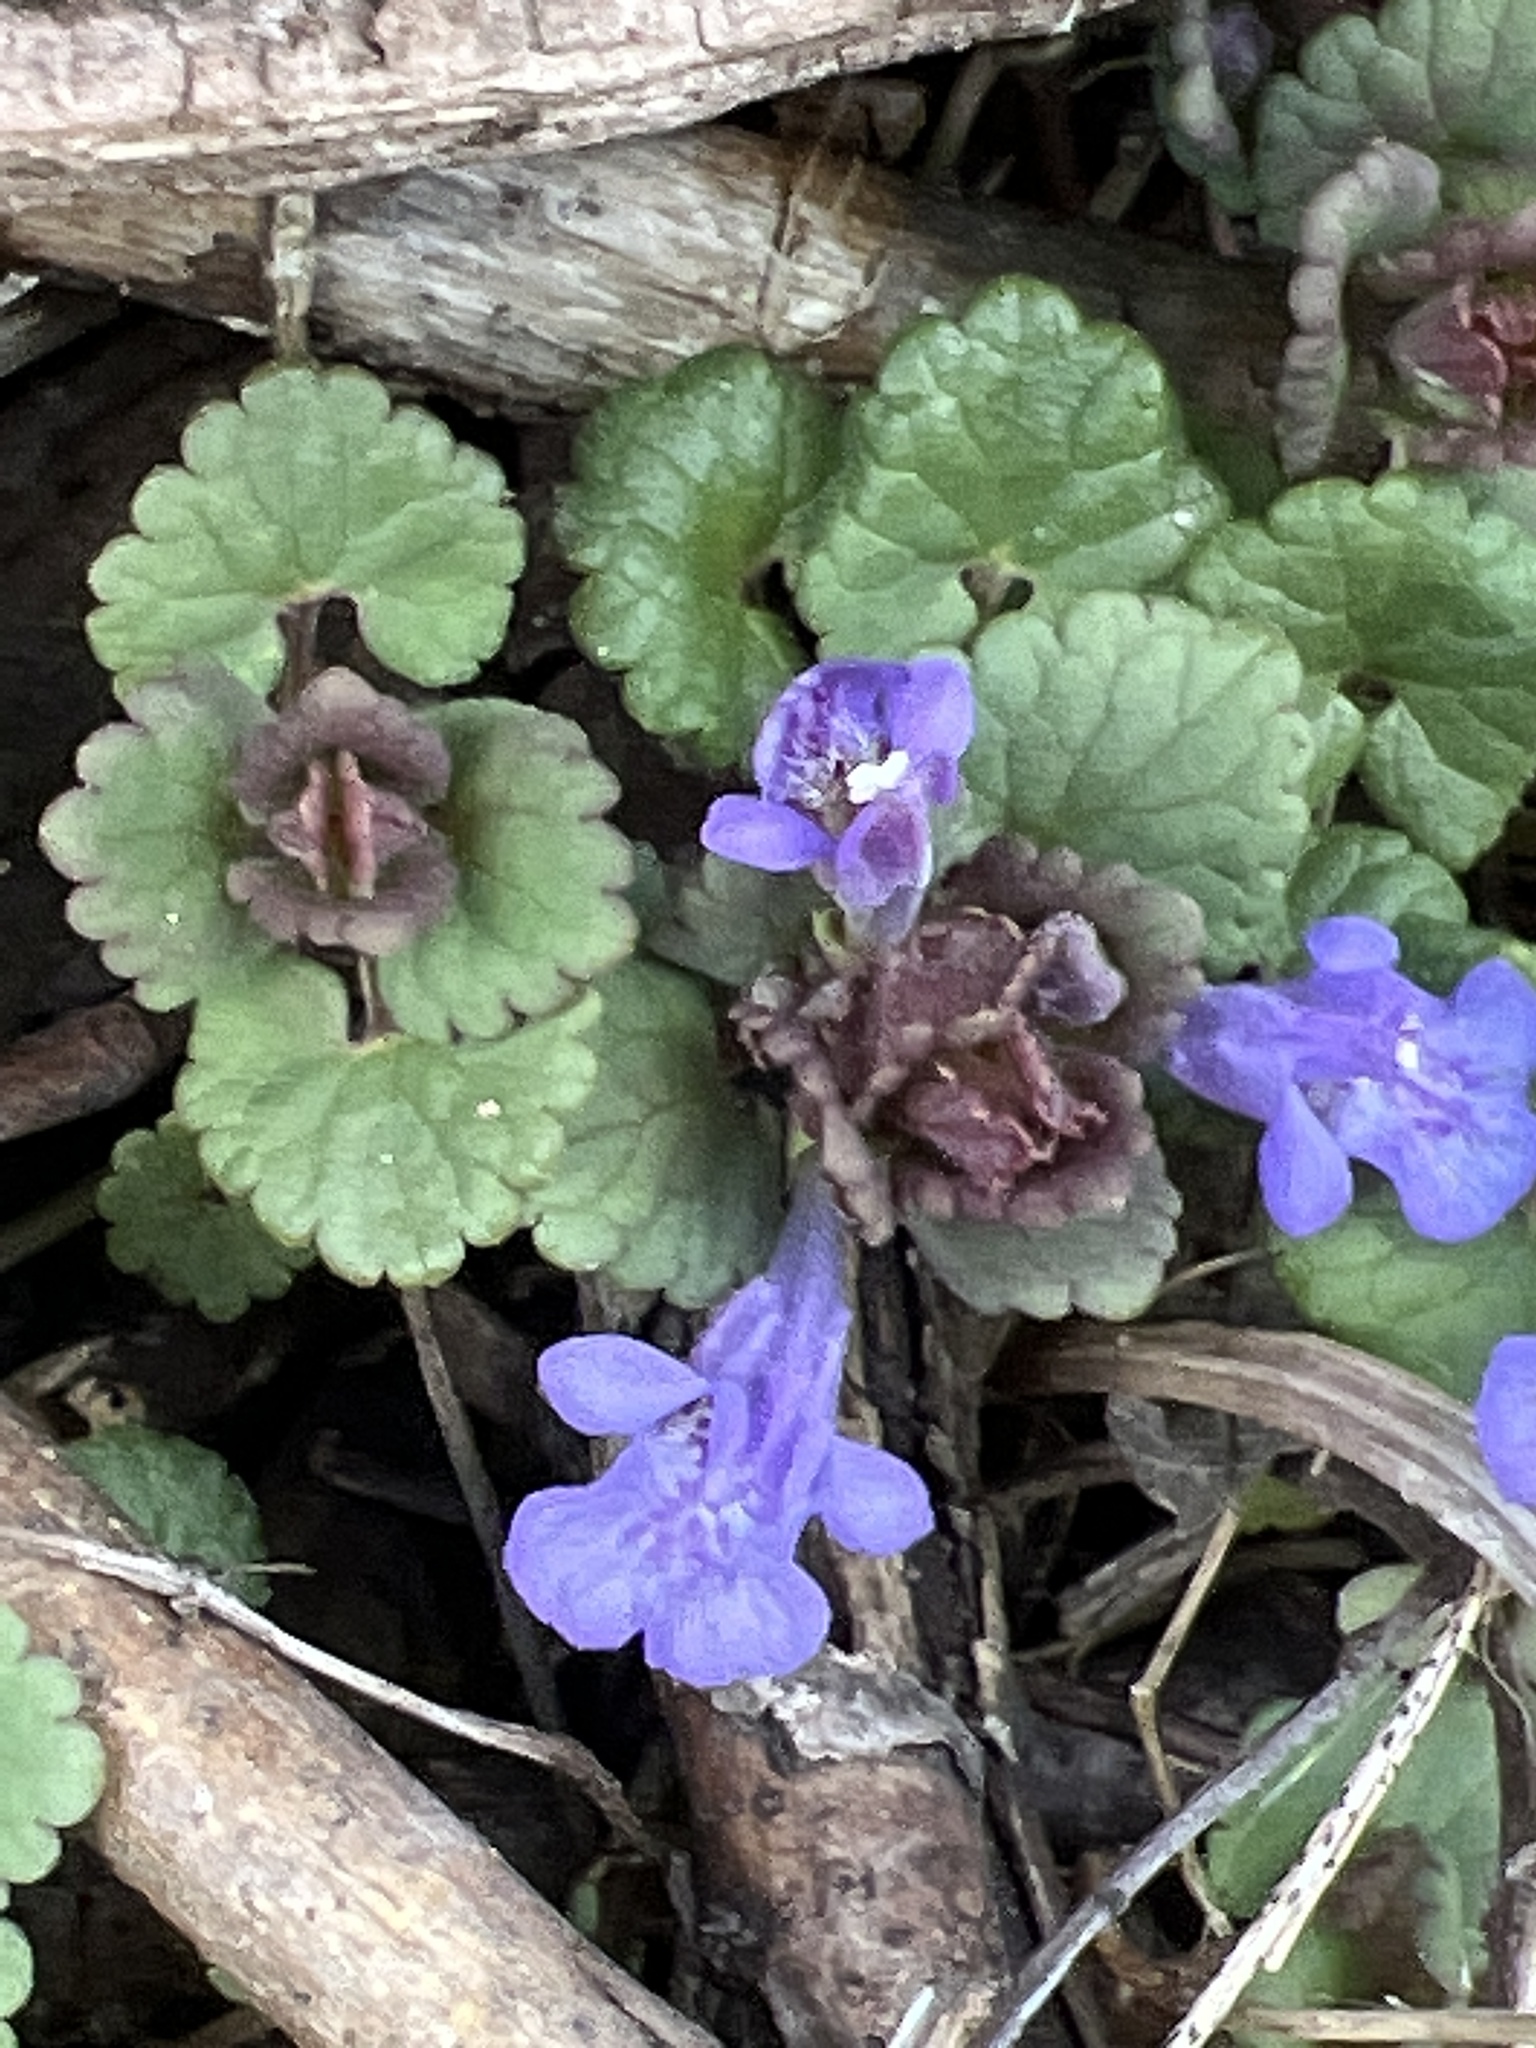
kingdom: Plantae
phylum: Tracheophyta
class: Magnoliopsida
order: Lamiales
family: Lamiaceae
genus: Glechoma
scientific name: Glechoma hederacea
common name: Ground ivy
